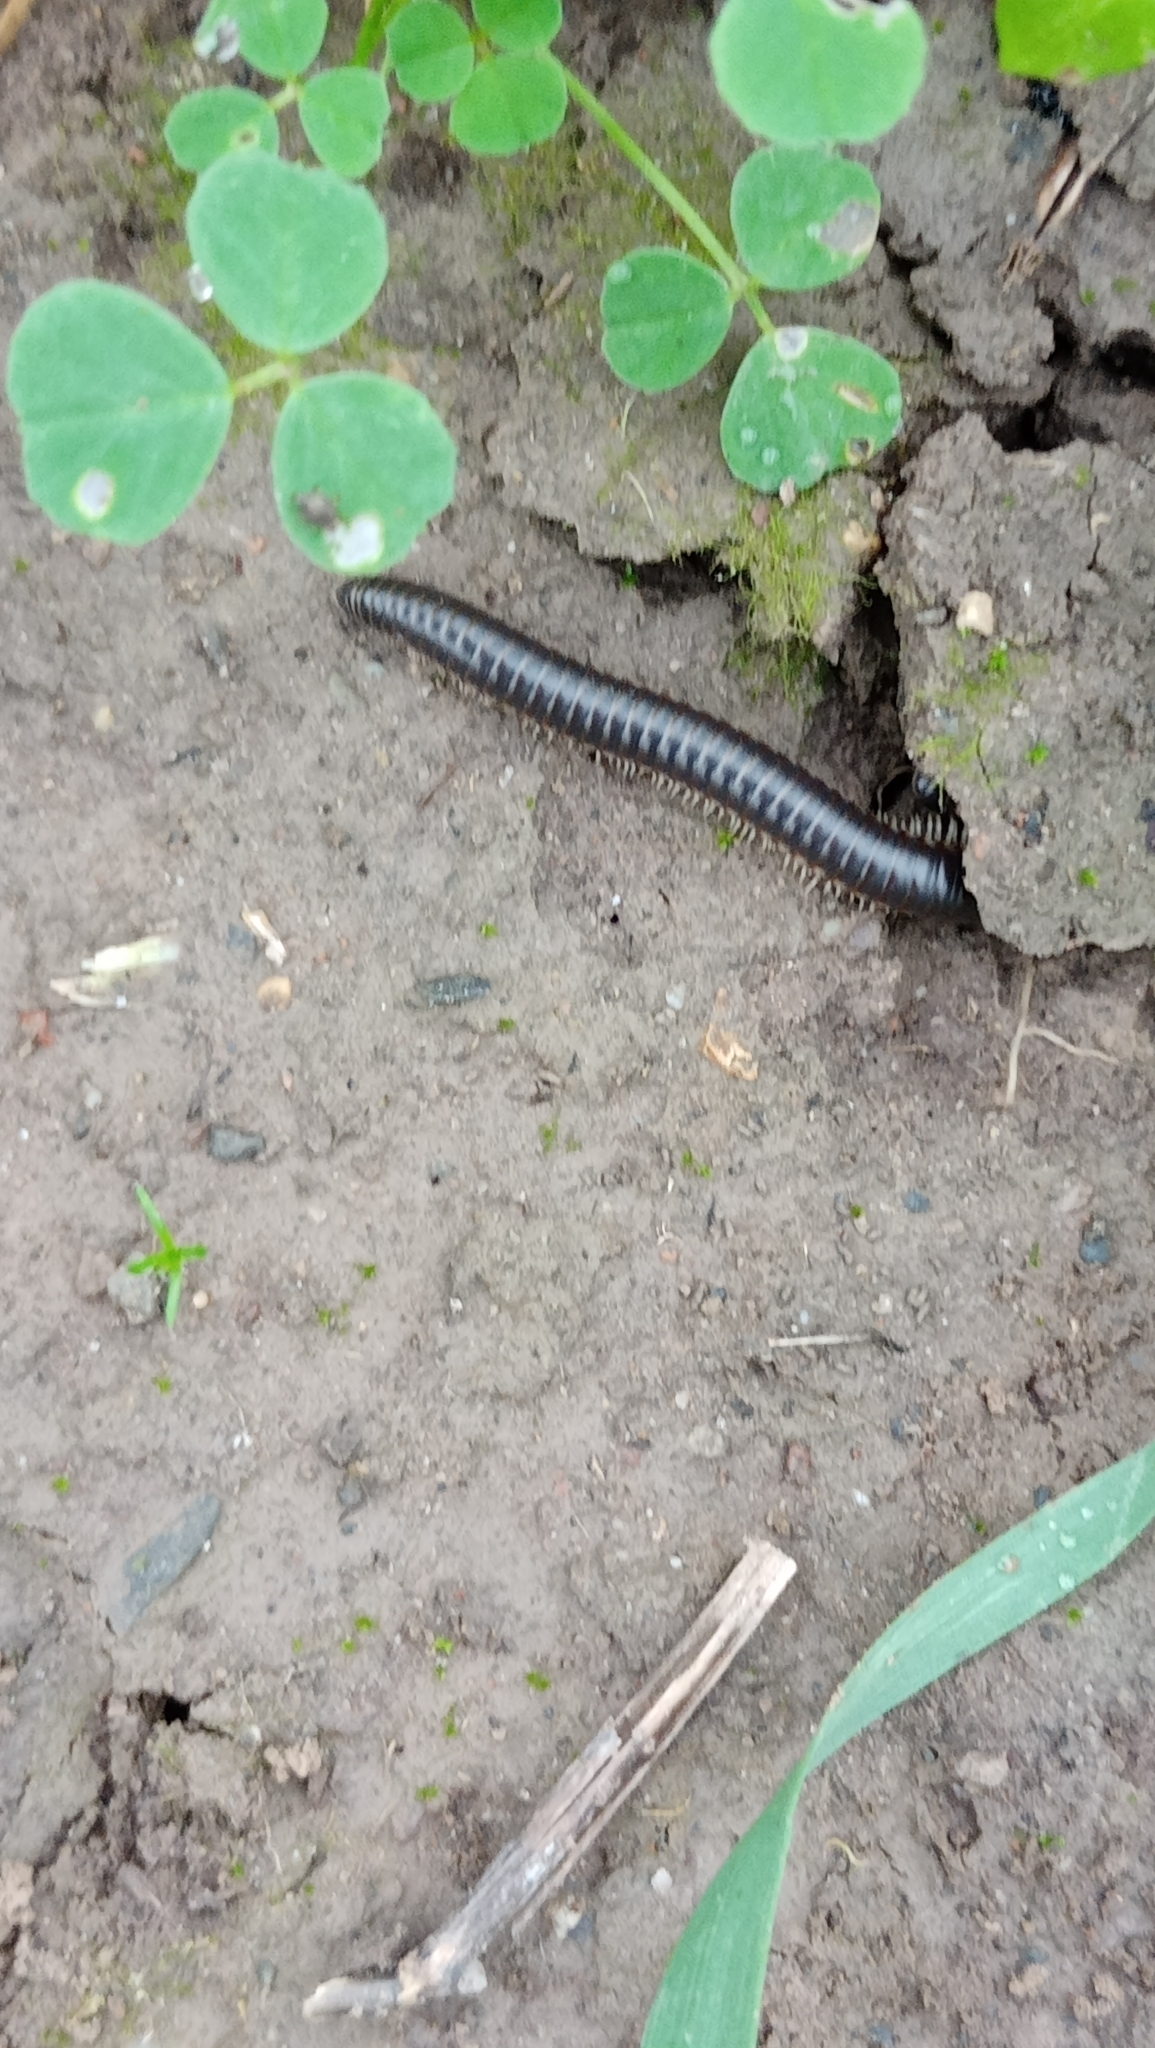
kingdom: Animalia
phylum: Arthropoda
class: Diplopoda
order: Julida
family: Julidae
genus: Pachyiulus
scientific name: Pachyiulus flavipes
